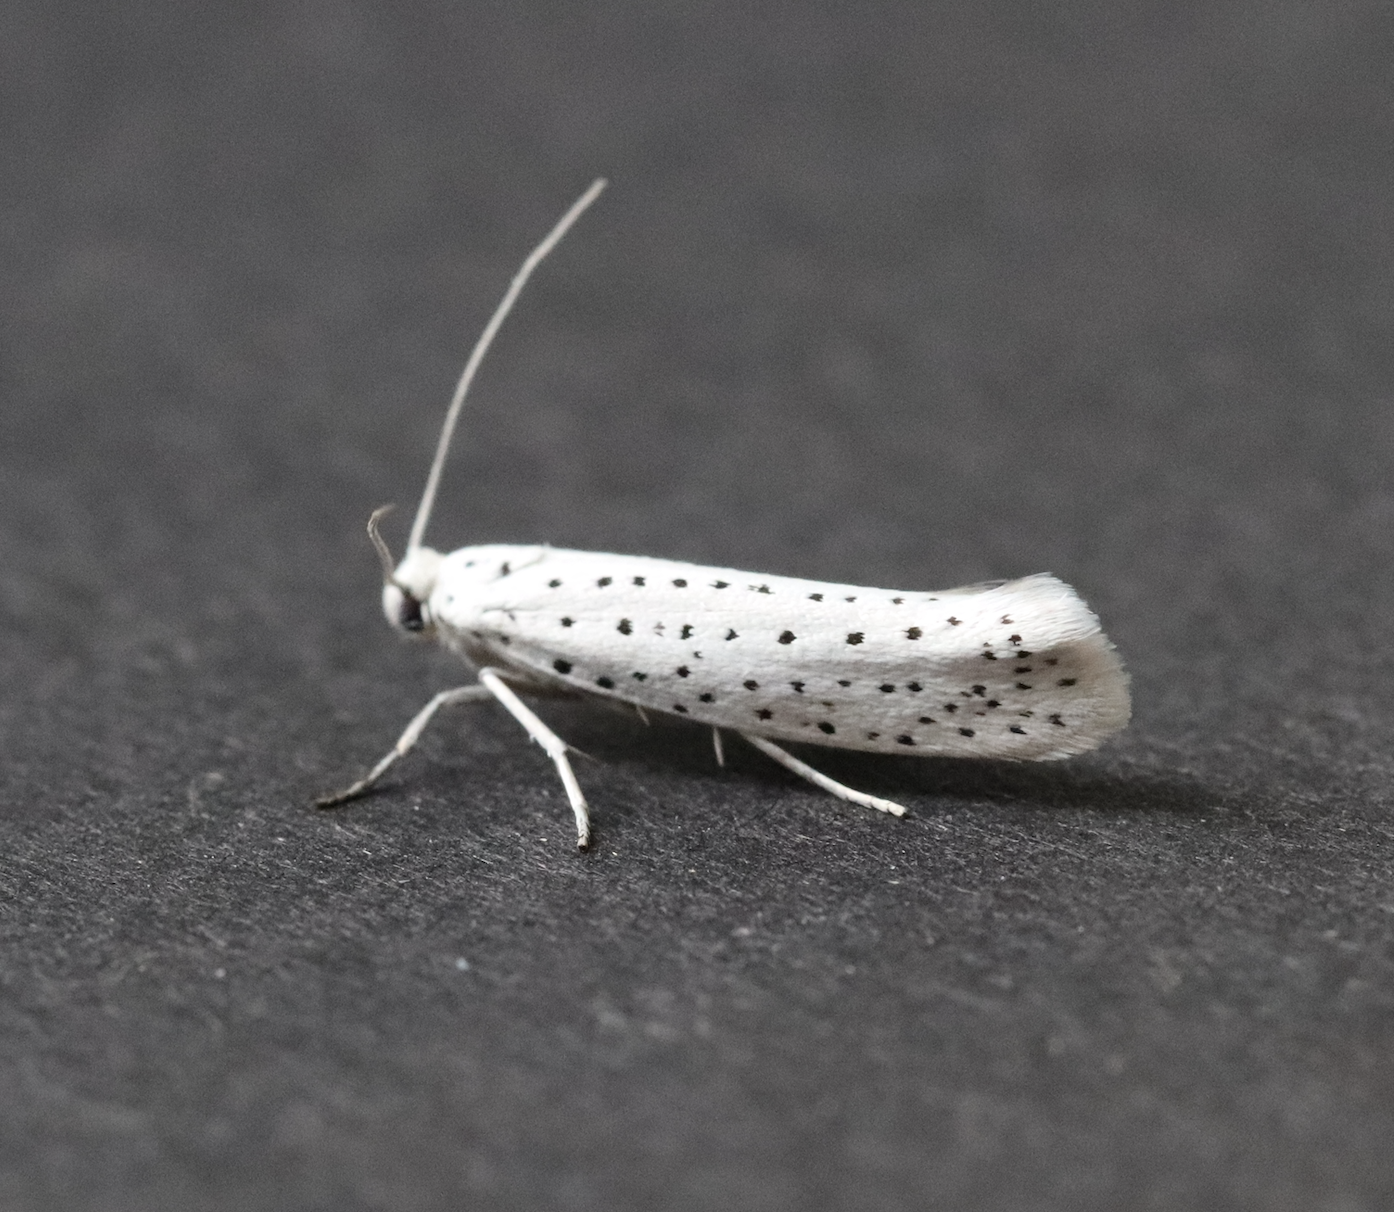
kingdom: Animalia
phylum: Arthropoda
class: Insecta
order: Lepidoptera
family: Yponomeutidae
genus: Yponomeuta
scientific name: Yponomeuta evonymella
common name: Bird-cherry ermine
